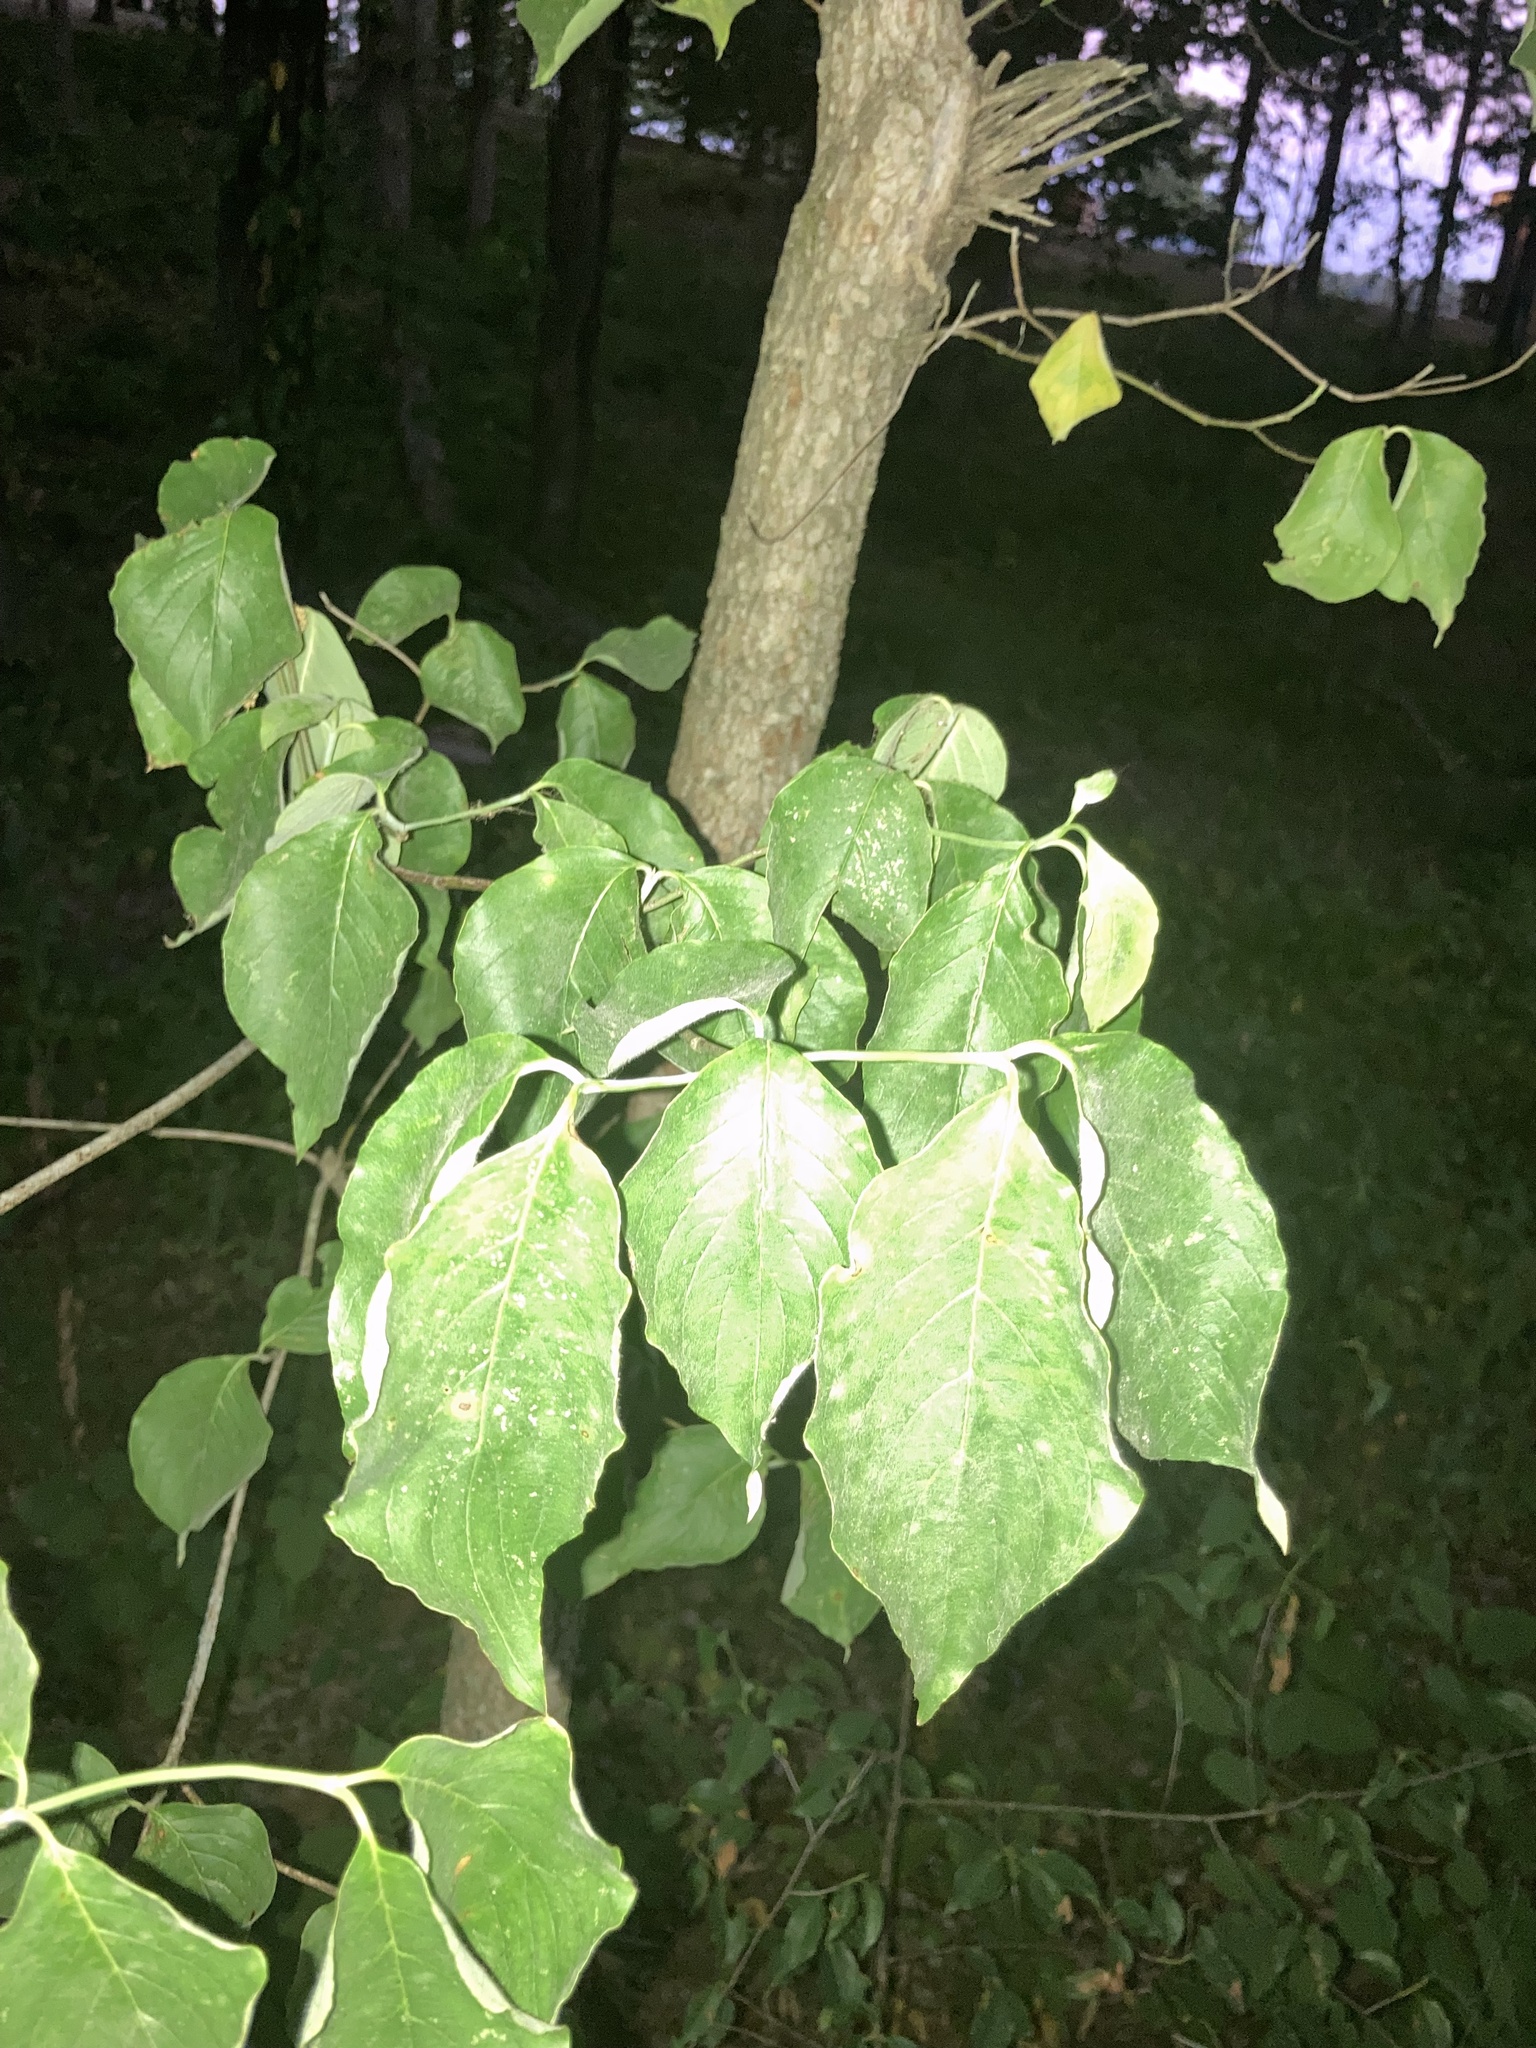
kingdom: Plantae
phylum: Tracheophyta
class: Magnoliopsida
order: Cornales
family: Cornaceae
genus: Cornus
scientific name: Cornus florida
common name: Flowering dogwood
